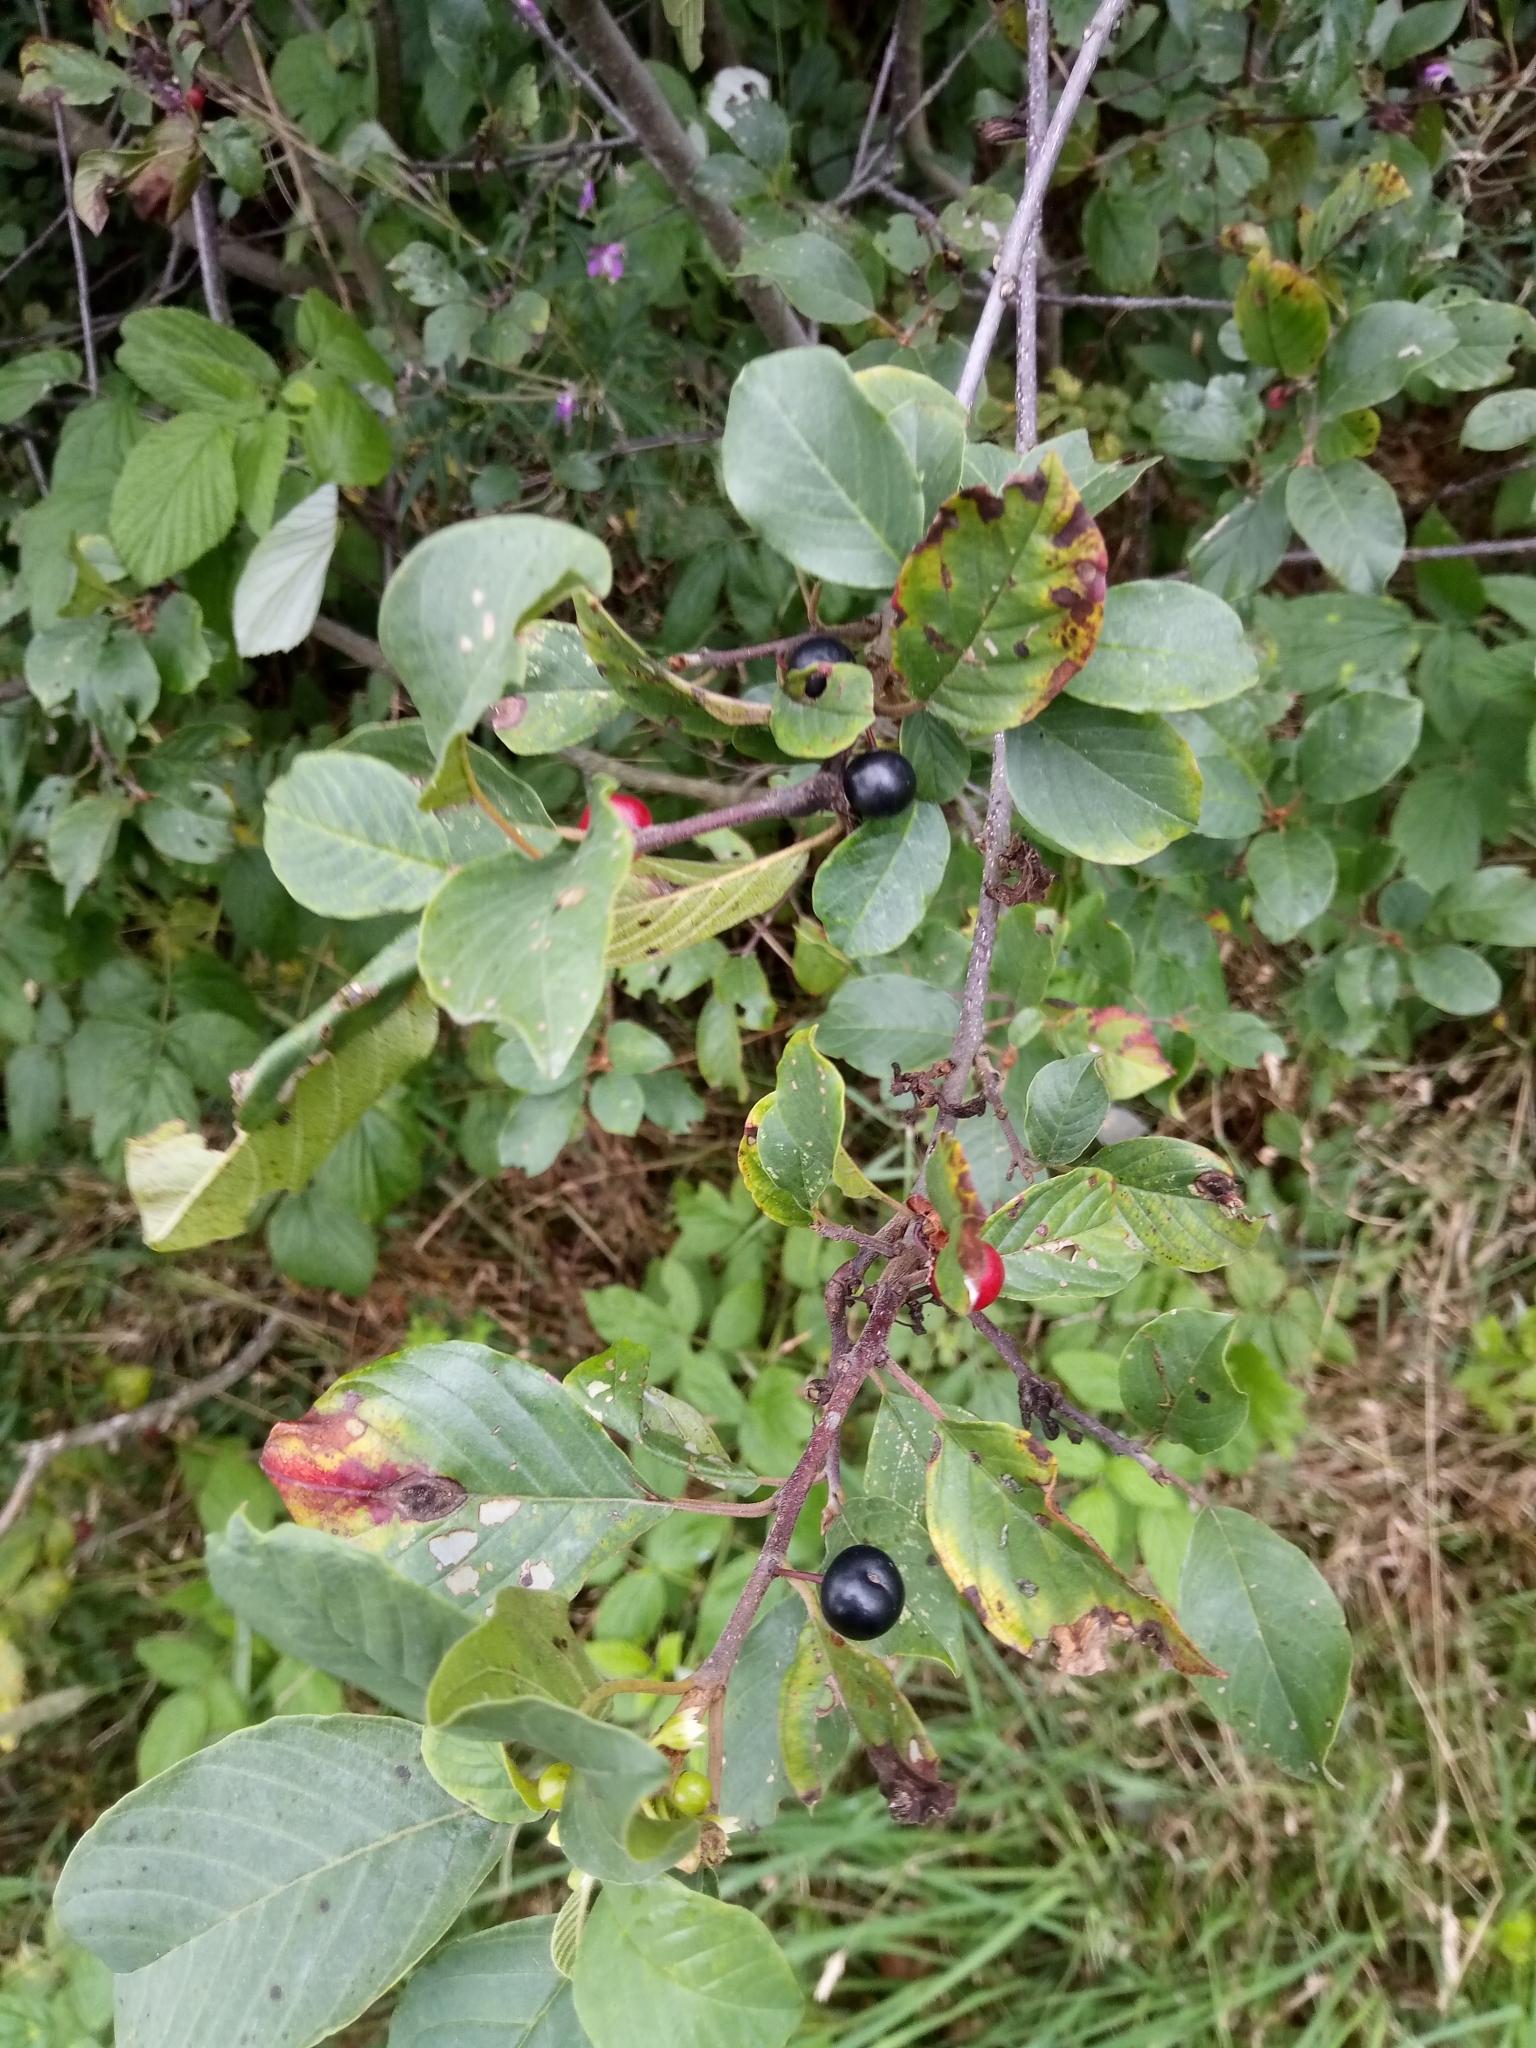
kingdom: Plantae
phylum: Tracheophyta
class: Magnoliopsida
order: Rosales
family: Rhamnaceae
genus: Frangula
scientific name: Frangula alnus
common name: Alder buckthorn
